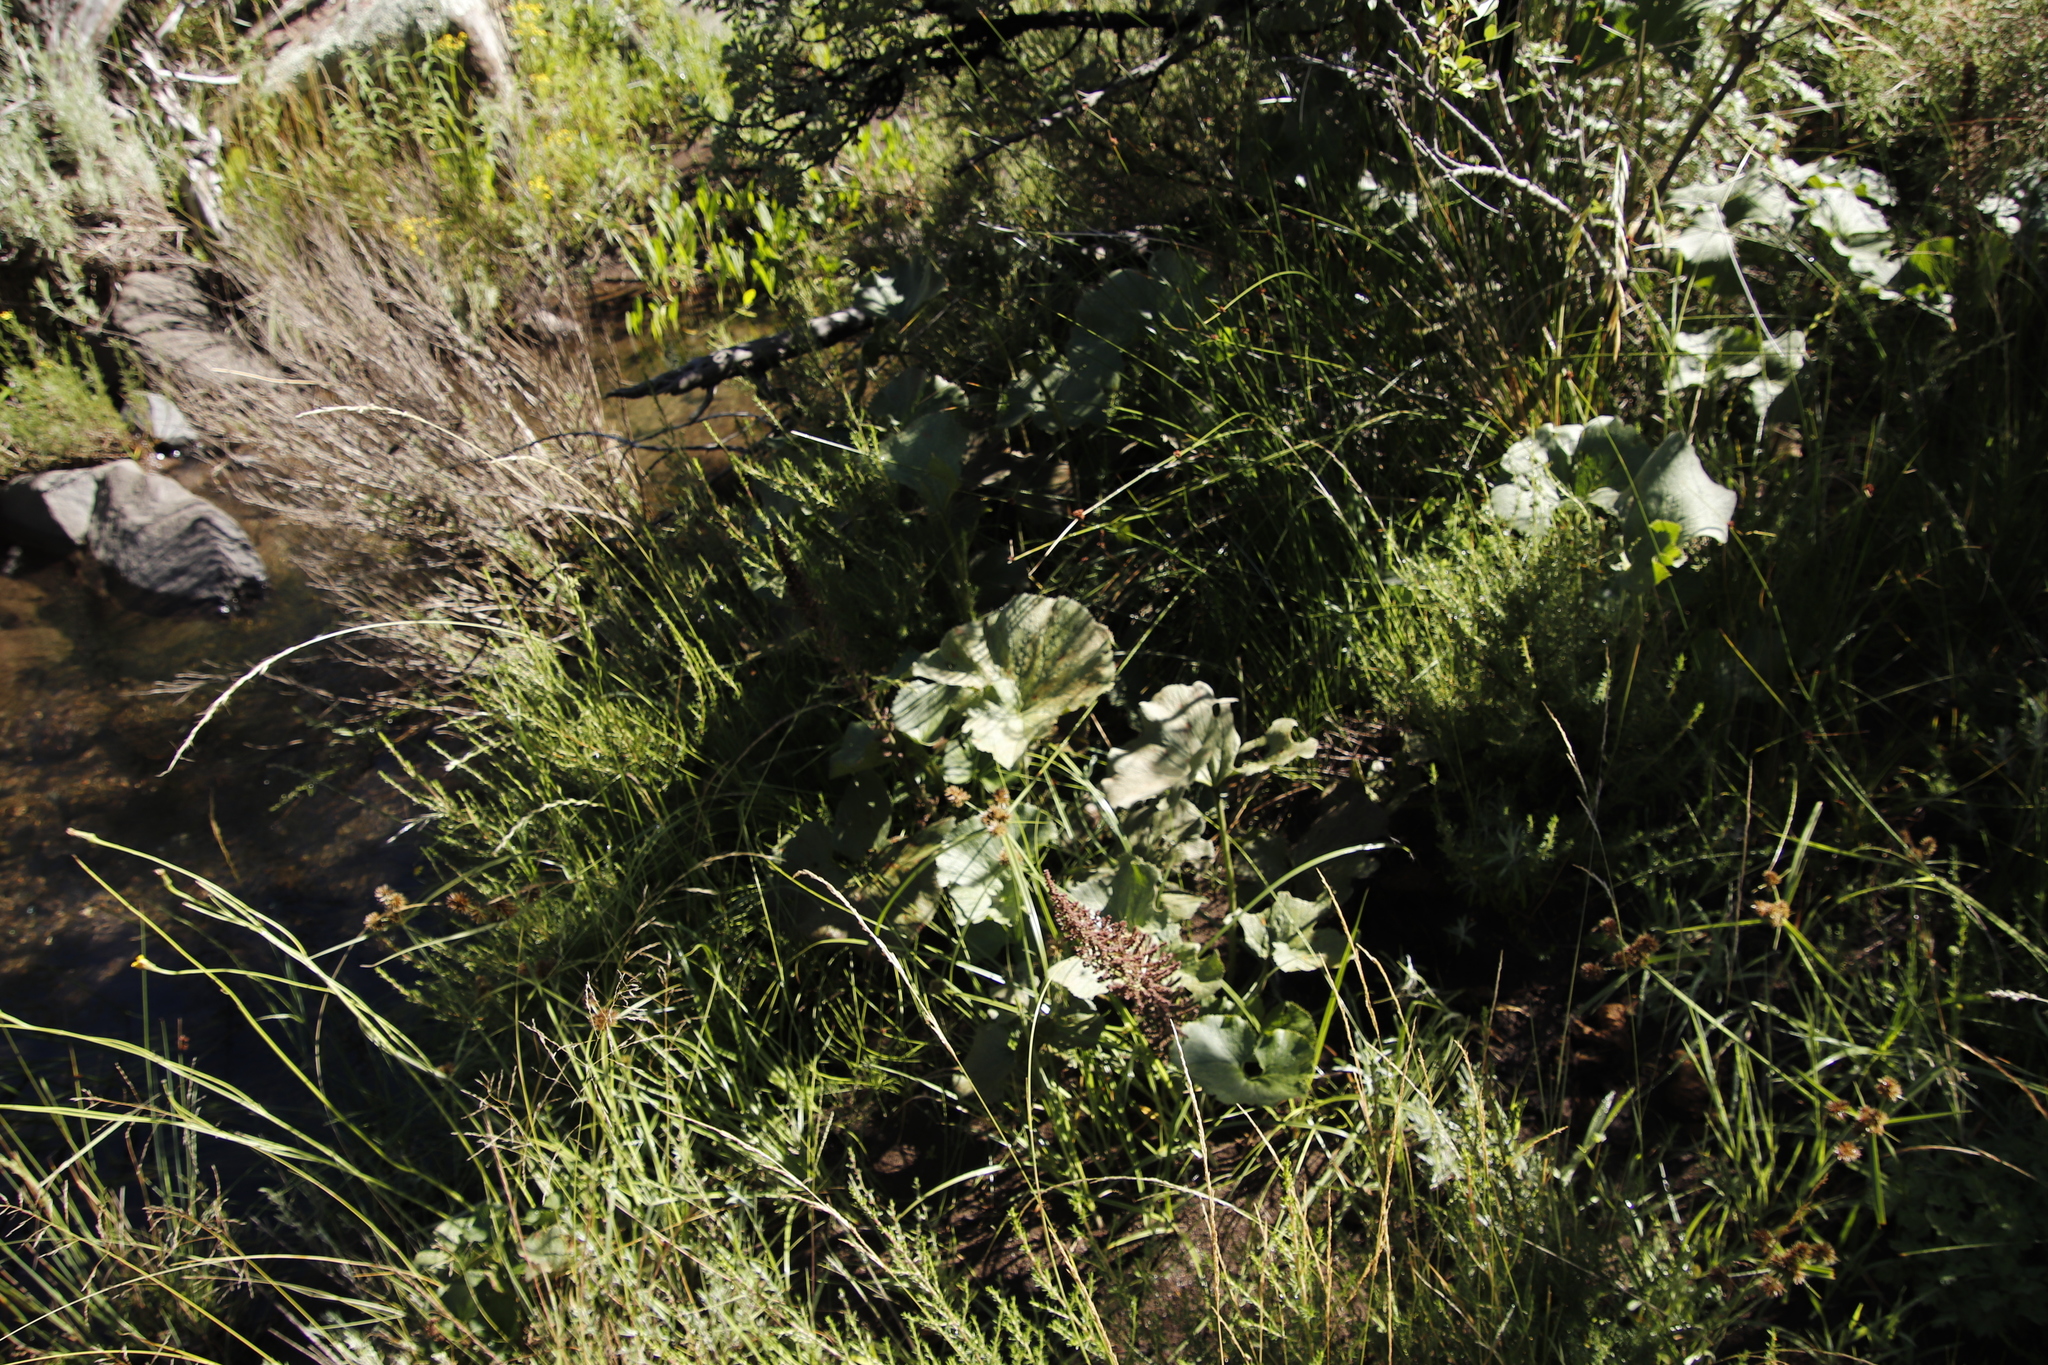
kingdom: Plantae
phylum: Tracheophyta
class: Magnoliopsida
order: Gunnerales
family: Gunneraceae
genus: Gunnera
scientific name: Gunnera perpensa
